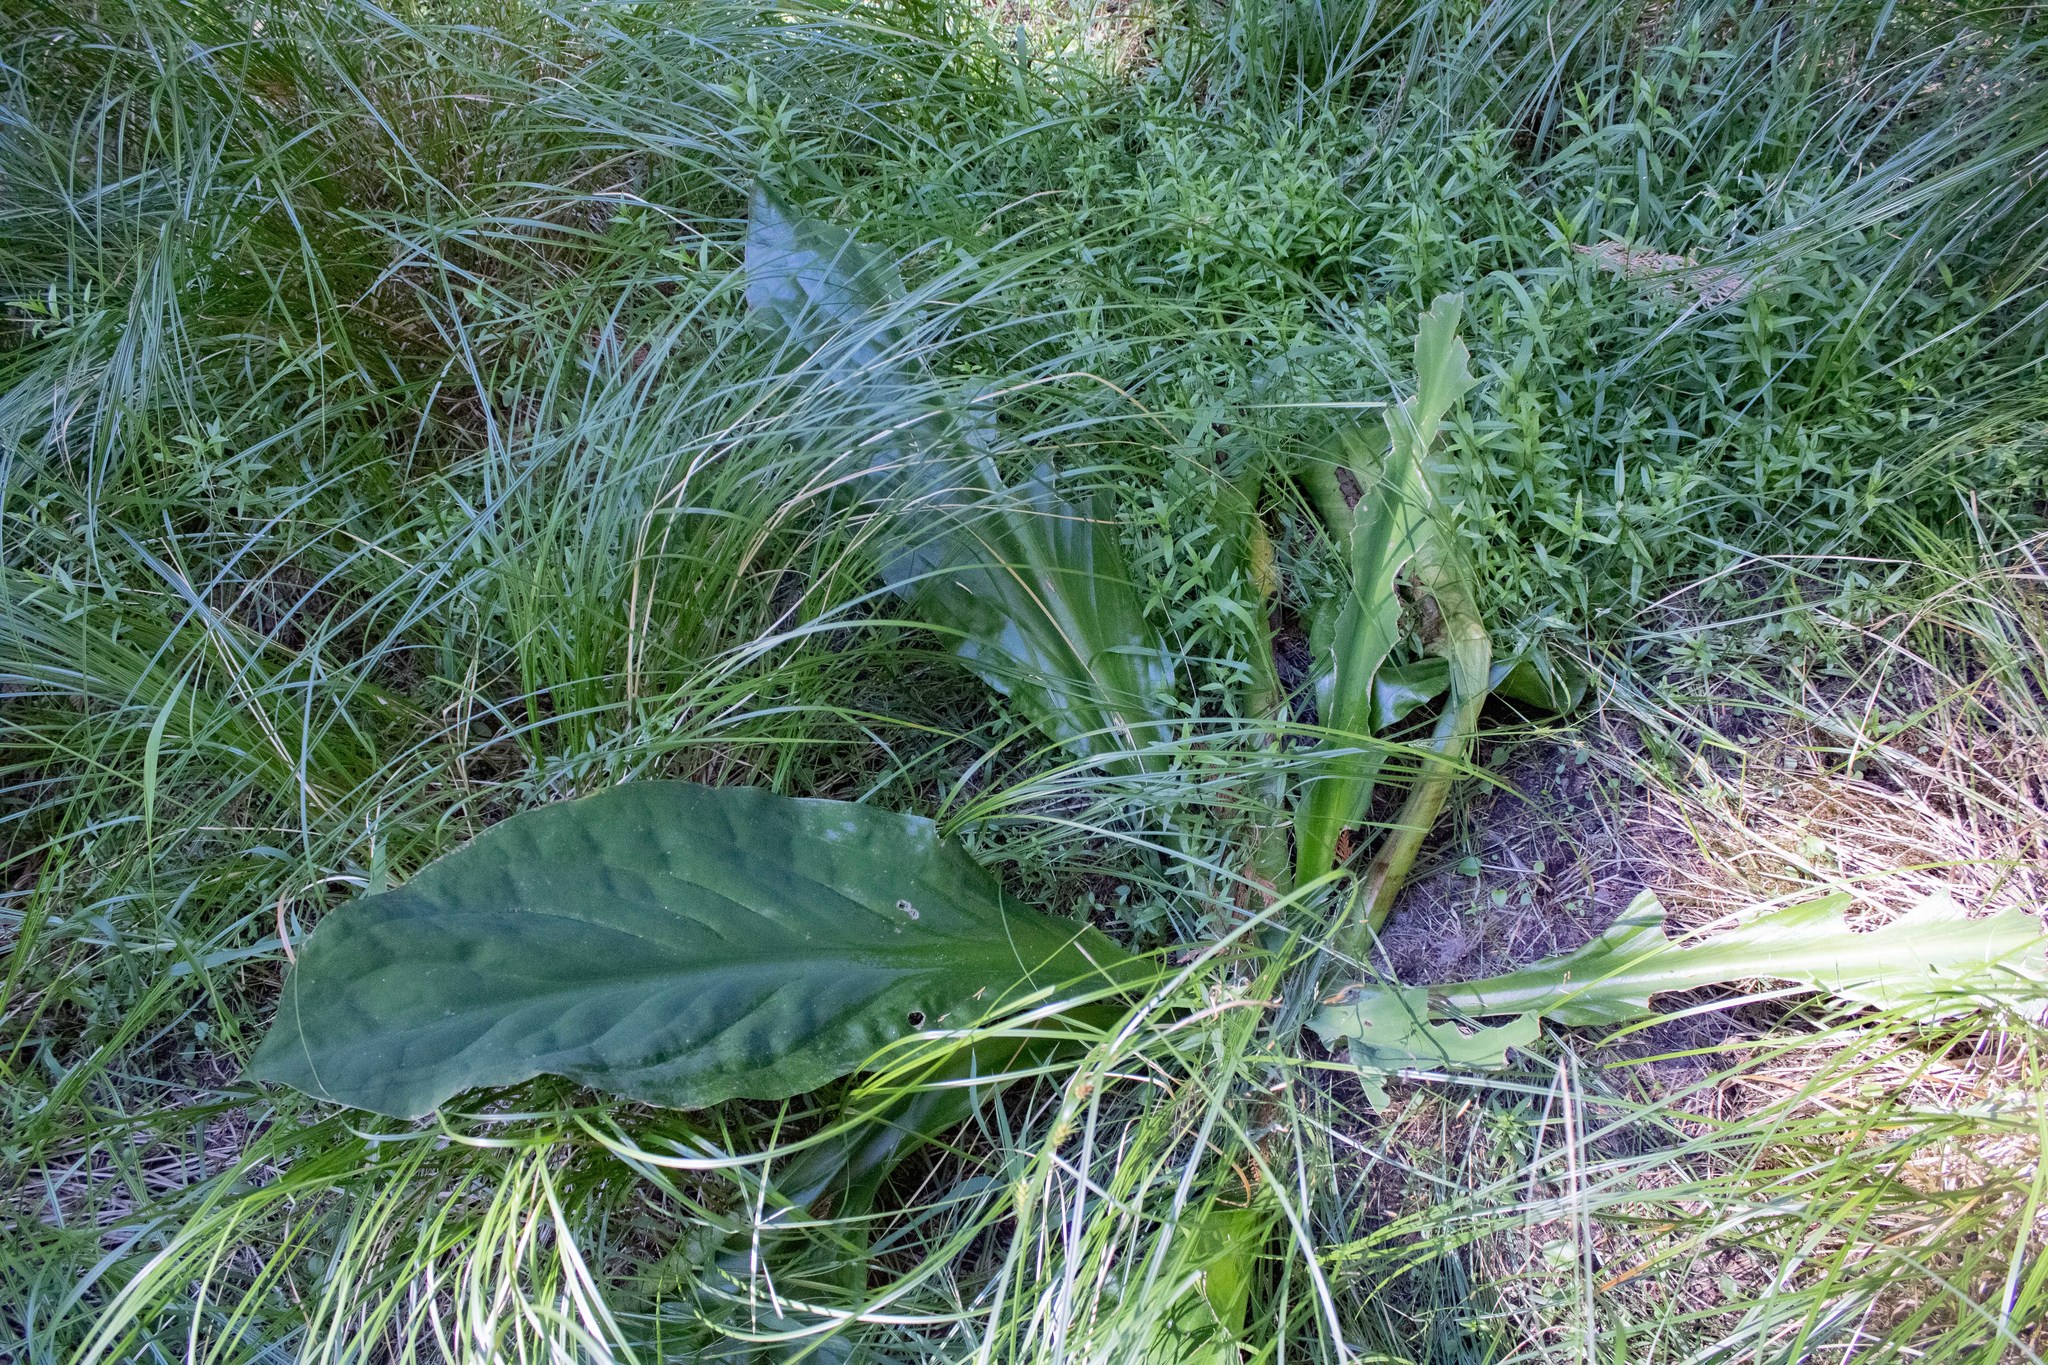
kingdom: Plantae
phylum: Tracheophyta
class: Liliopsida
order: Alismatales
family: Araceae
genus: Lysichiton
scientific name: Lysichiton americanus
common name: American skunk cabbage
